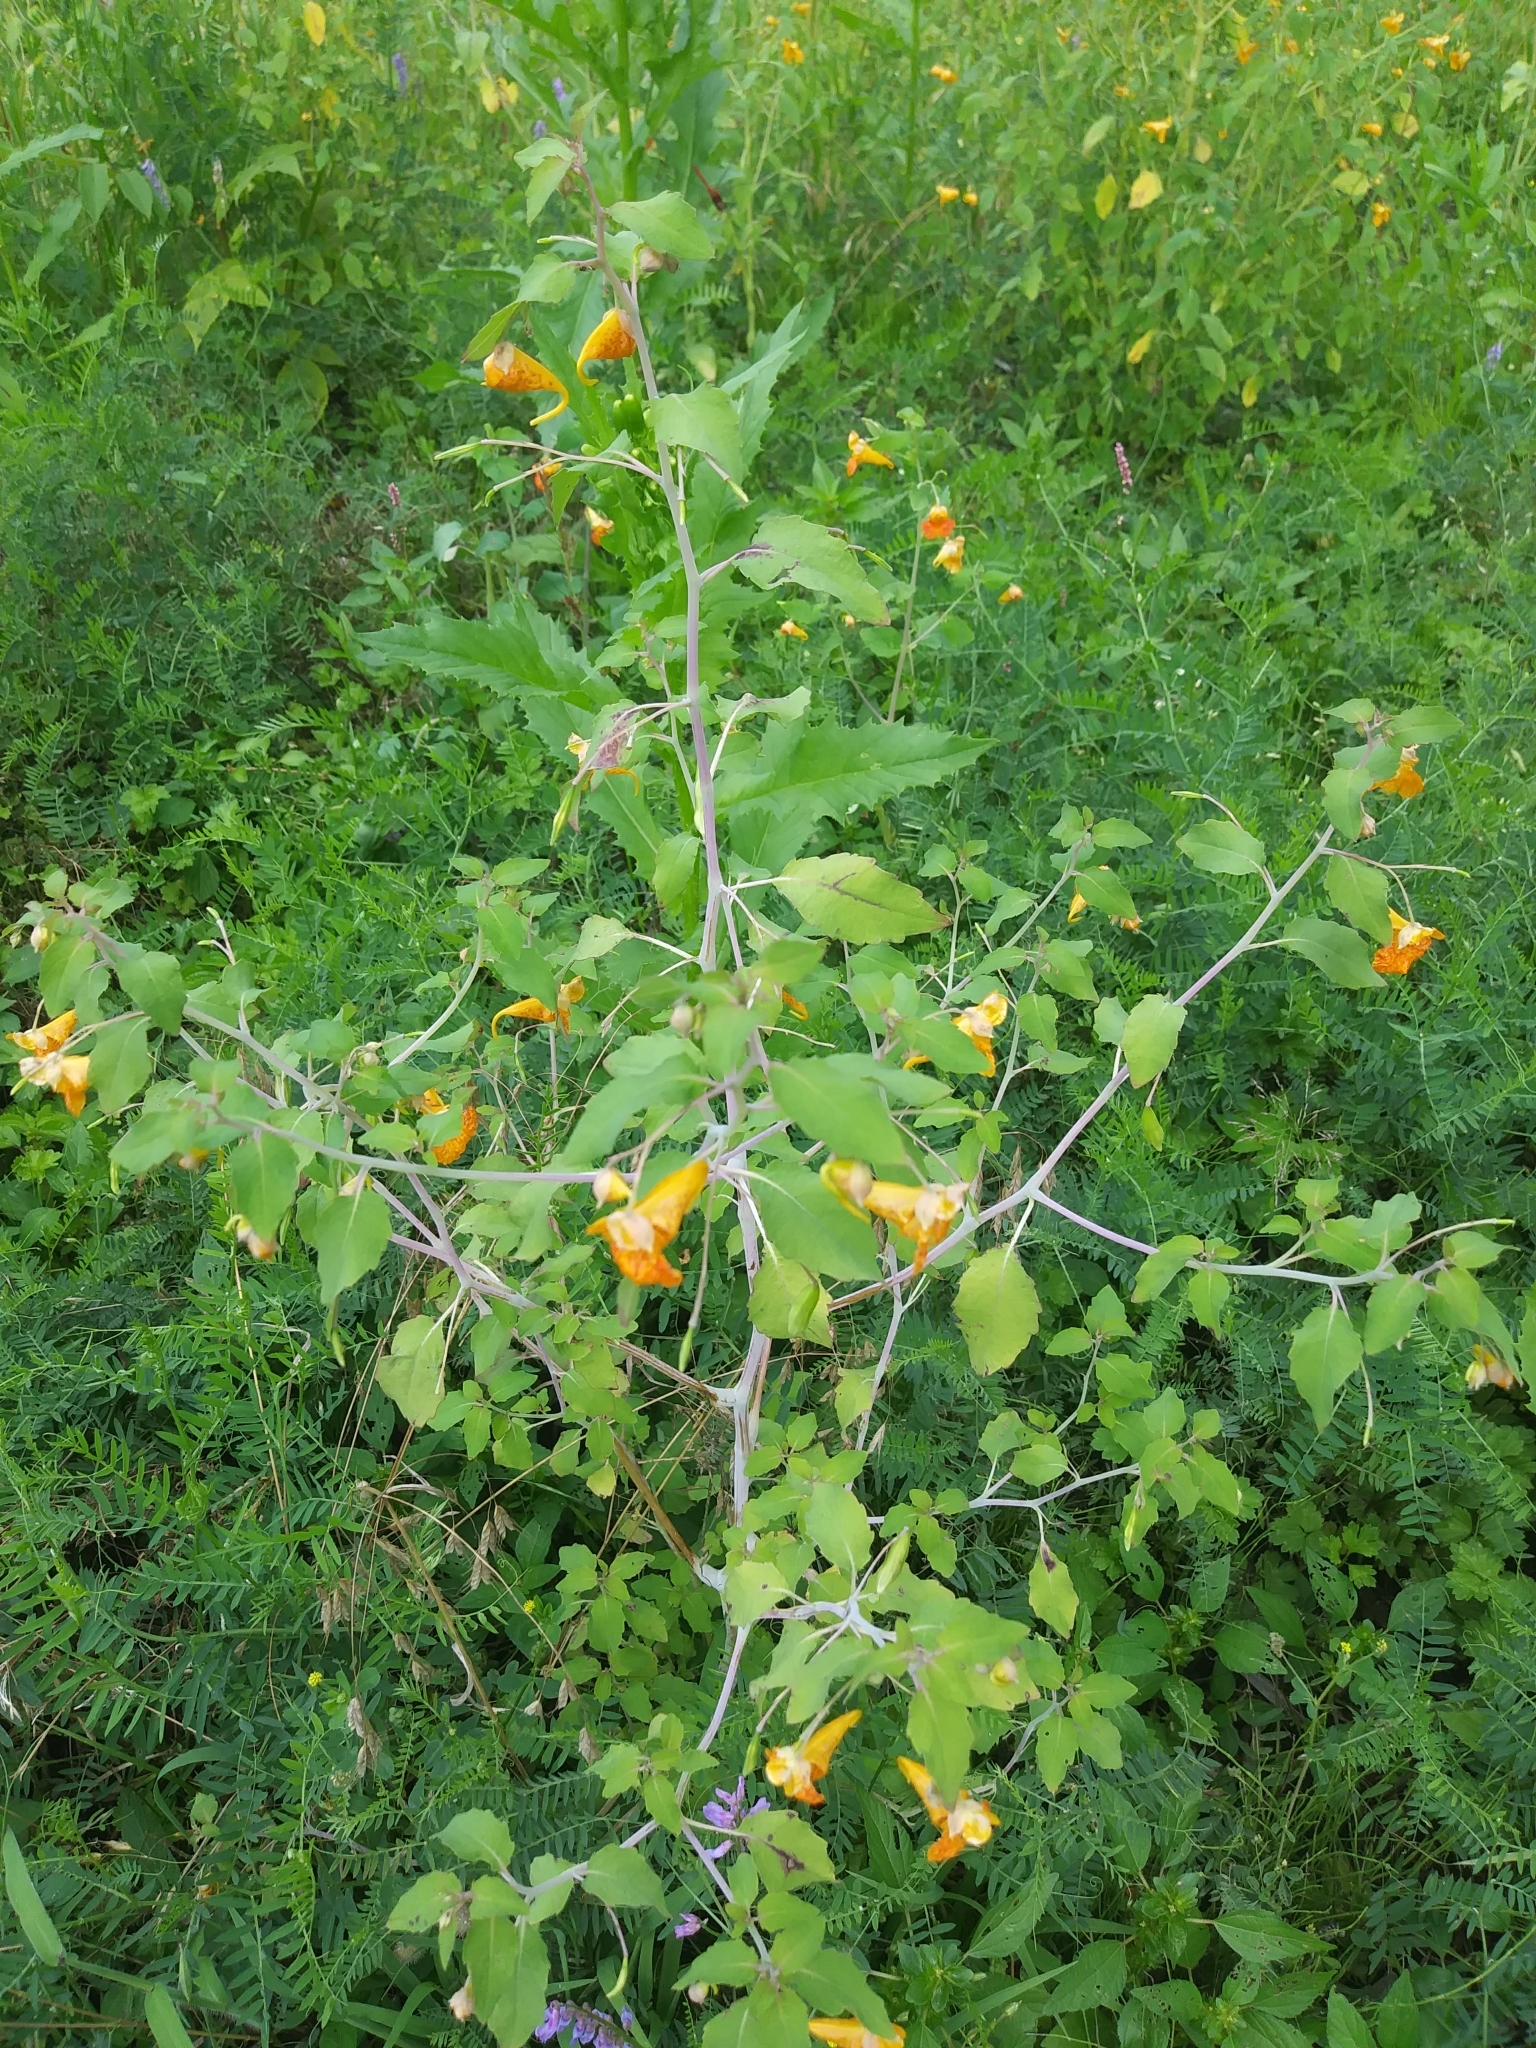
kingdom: Plantae
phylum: Tracheophyta
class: Magnoliopsida
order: Ericales
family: Balsaminaceae
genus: Impatiens
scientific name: Impatiens capensis
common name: Orange balsam
